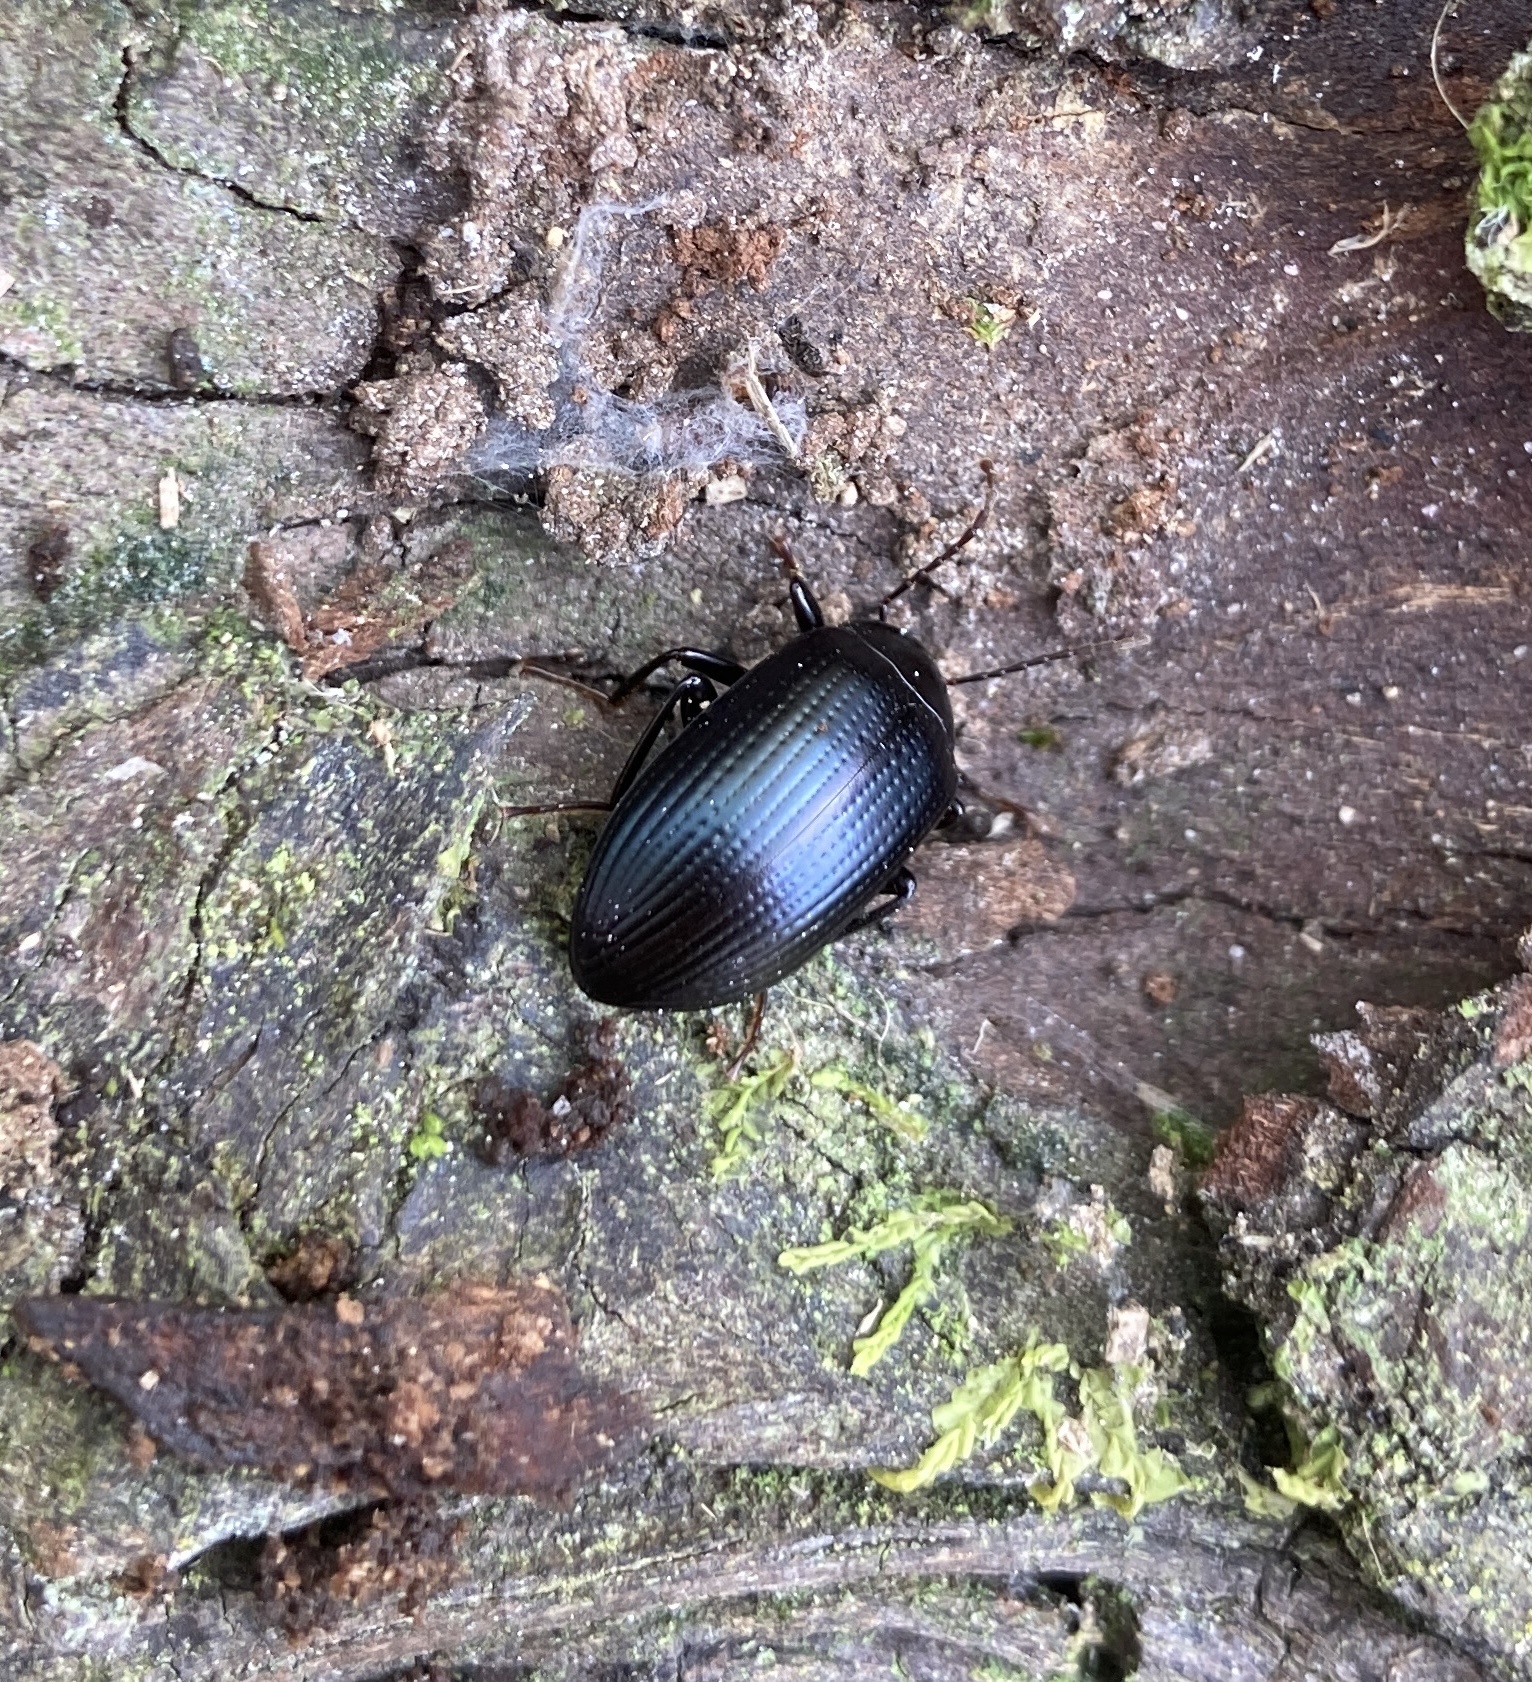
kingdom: Animalia
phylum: Arthropoda
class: Insecta
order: Coleoptera
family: Tenebrionidae
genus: Amarygmus
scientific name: Amarygmus
